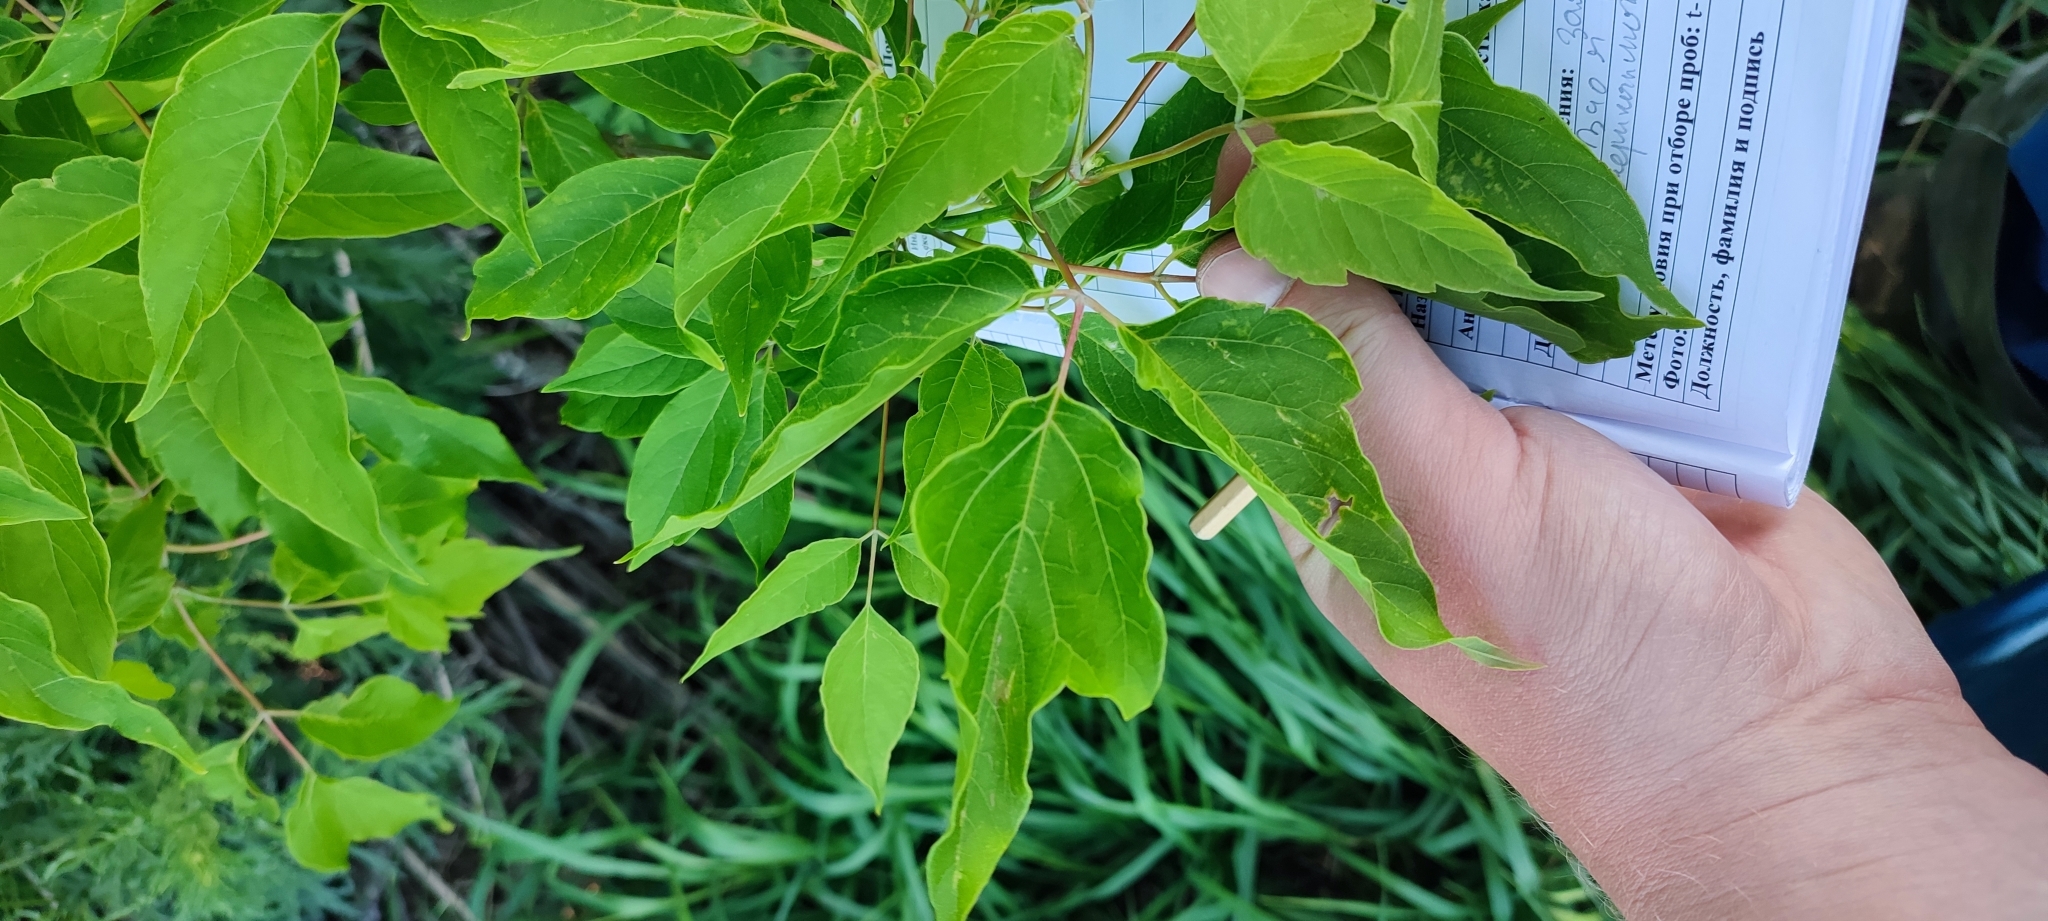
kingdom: Plantae
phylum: Tracheophyta
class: Magnoliopsida
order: Sapindales
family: Sapindaceae
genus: Acer
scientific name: Acer negundo
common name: Ashleaf maple
